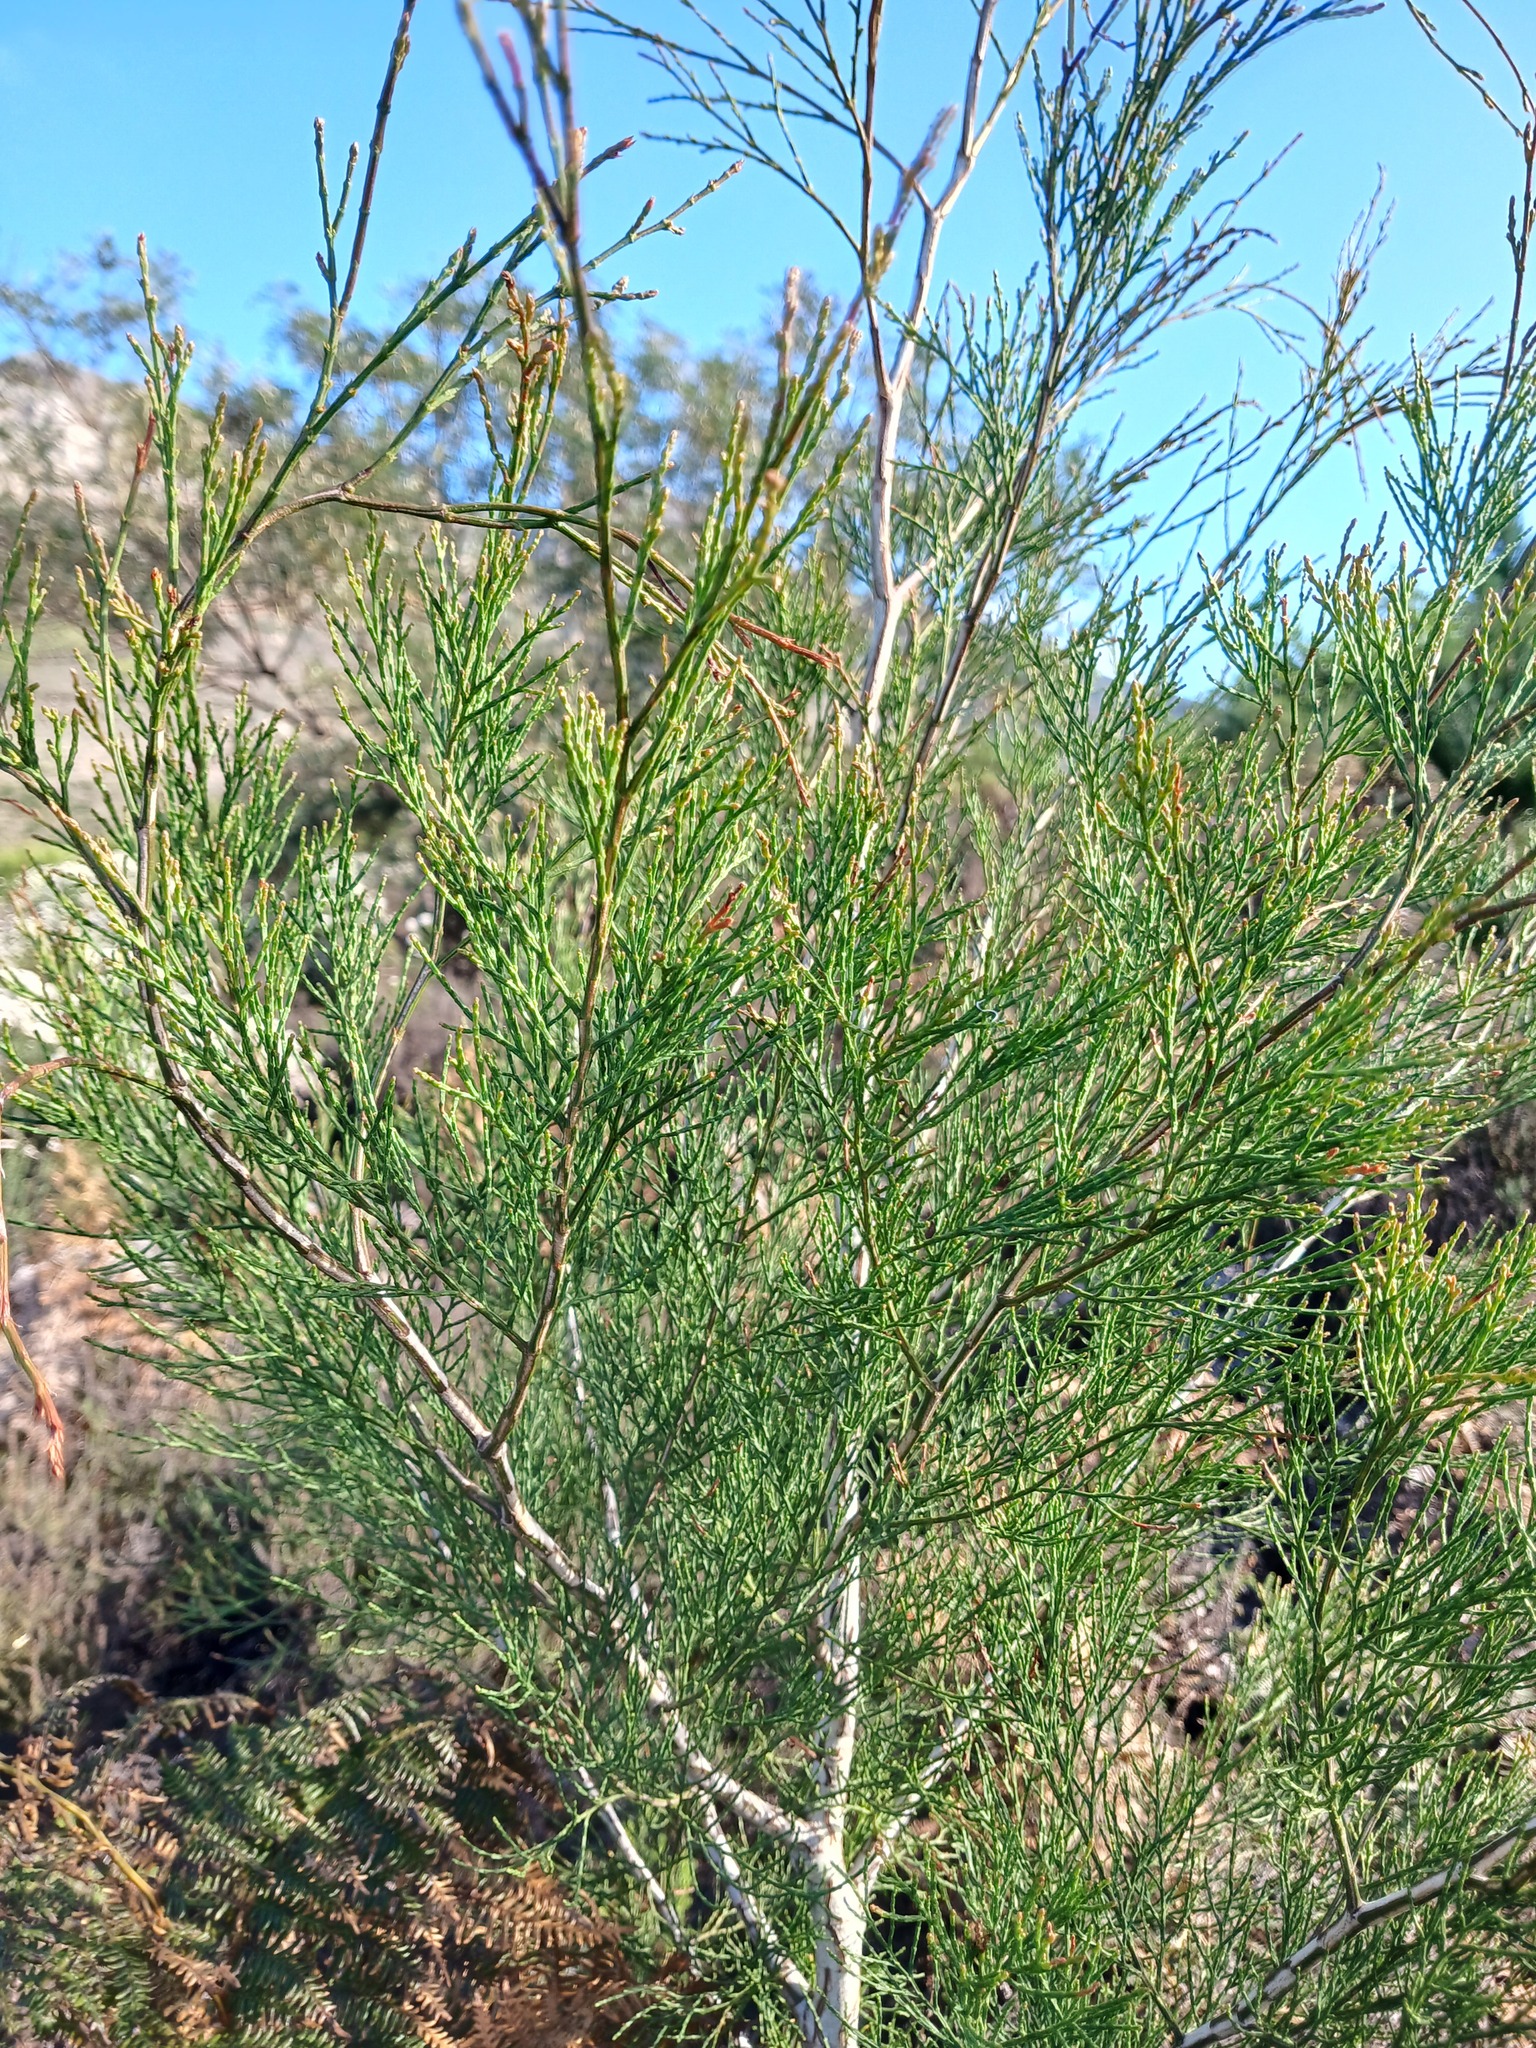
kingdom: Plantae
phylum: Tracheophyta
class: Pinopsida
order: Pinales
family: Cupressaceae
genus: Callitris
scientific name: Callitris rhomboidea
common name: Illawara mountain pine
